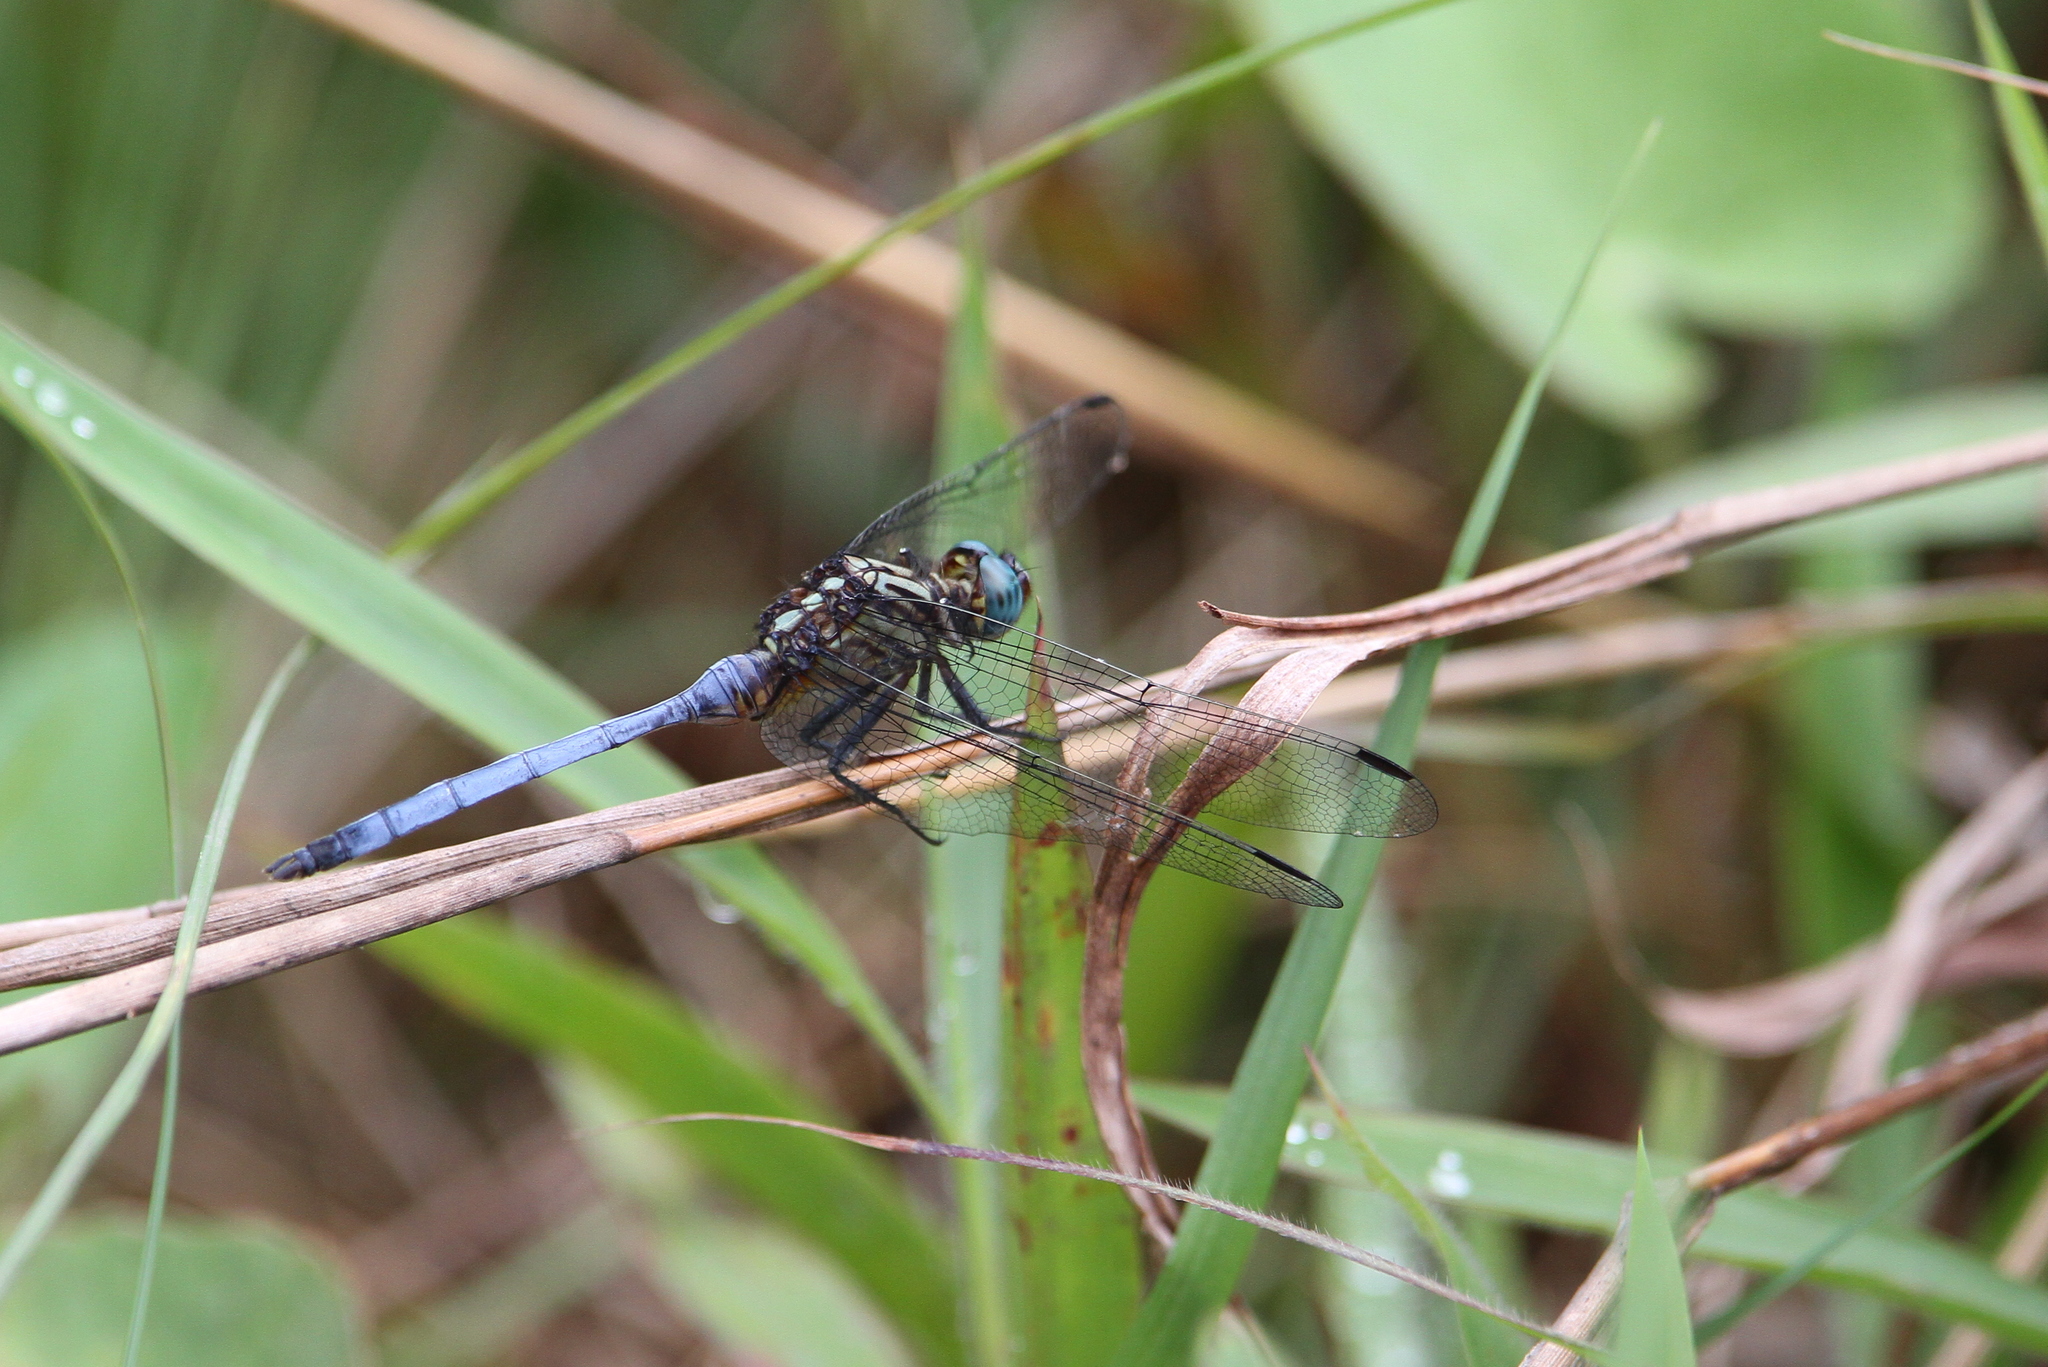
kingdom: Animalia
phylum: Arthropoda
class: Insecta
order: Odonata
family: Libellulidae
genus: Orthetrum
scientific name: Orthetrum julia
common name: Julia skimmer
